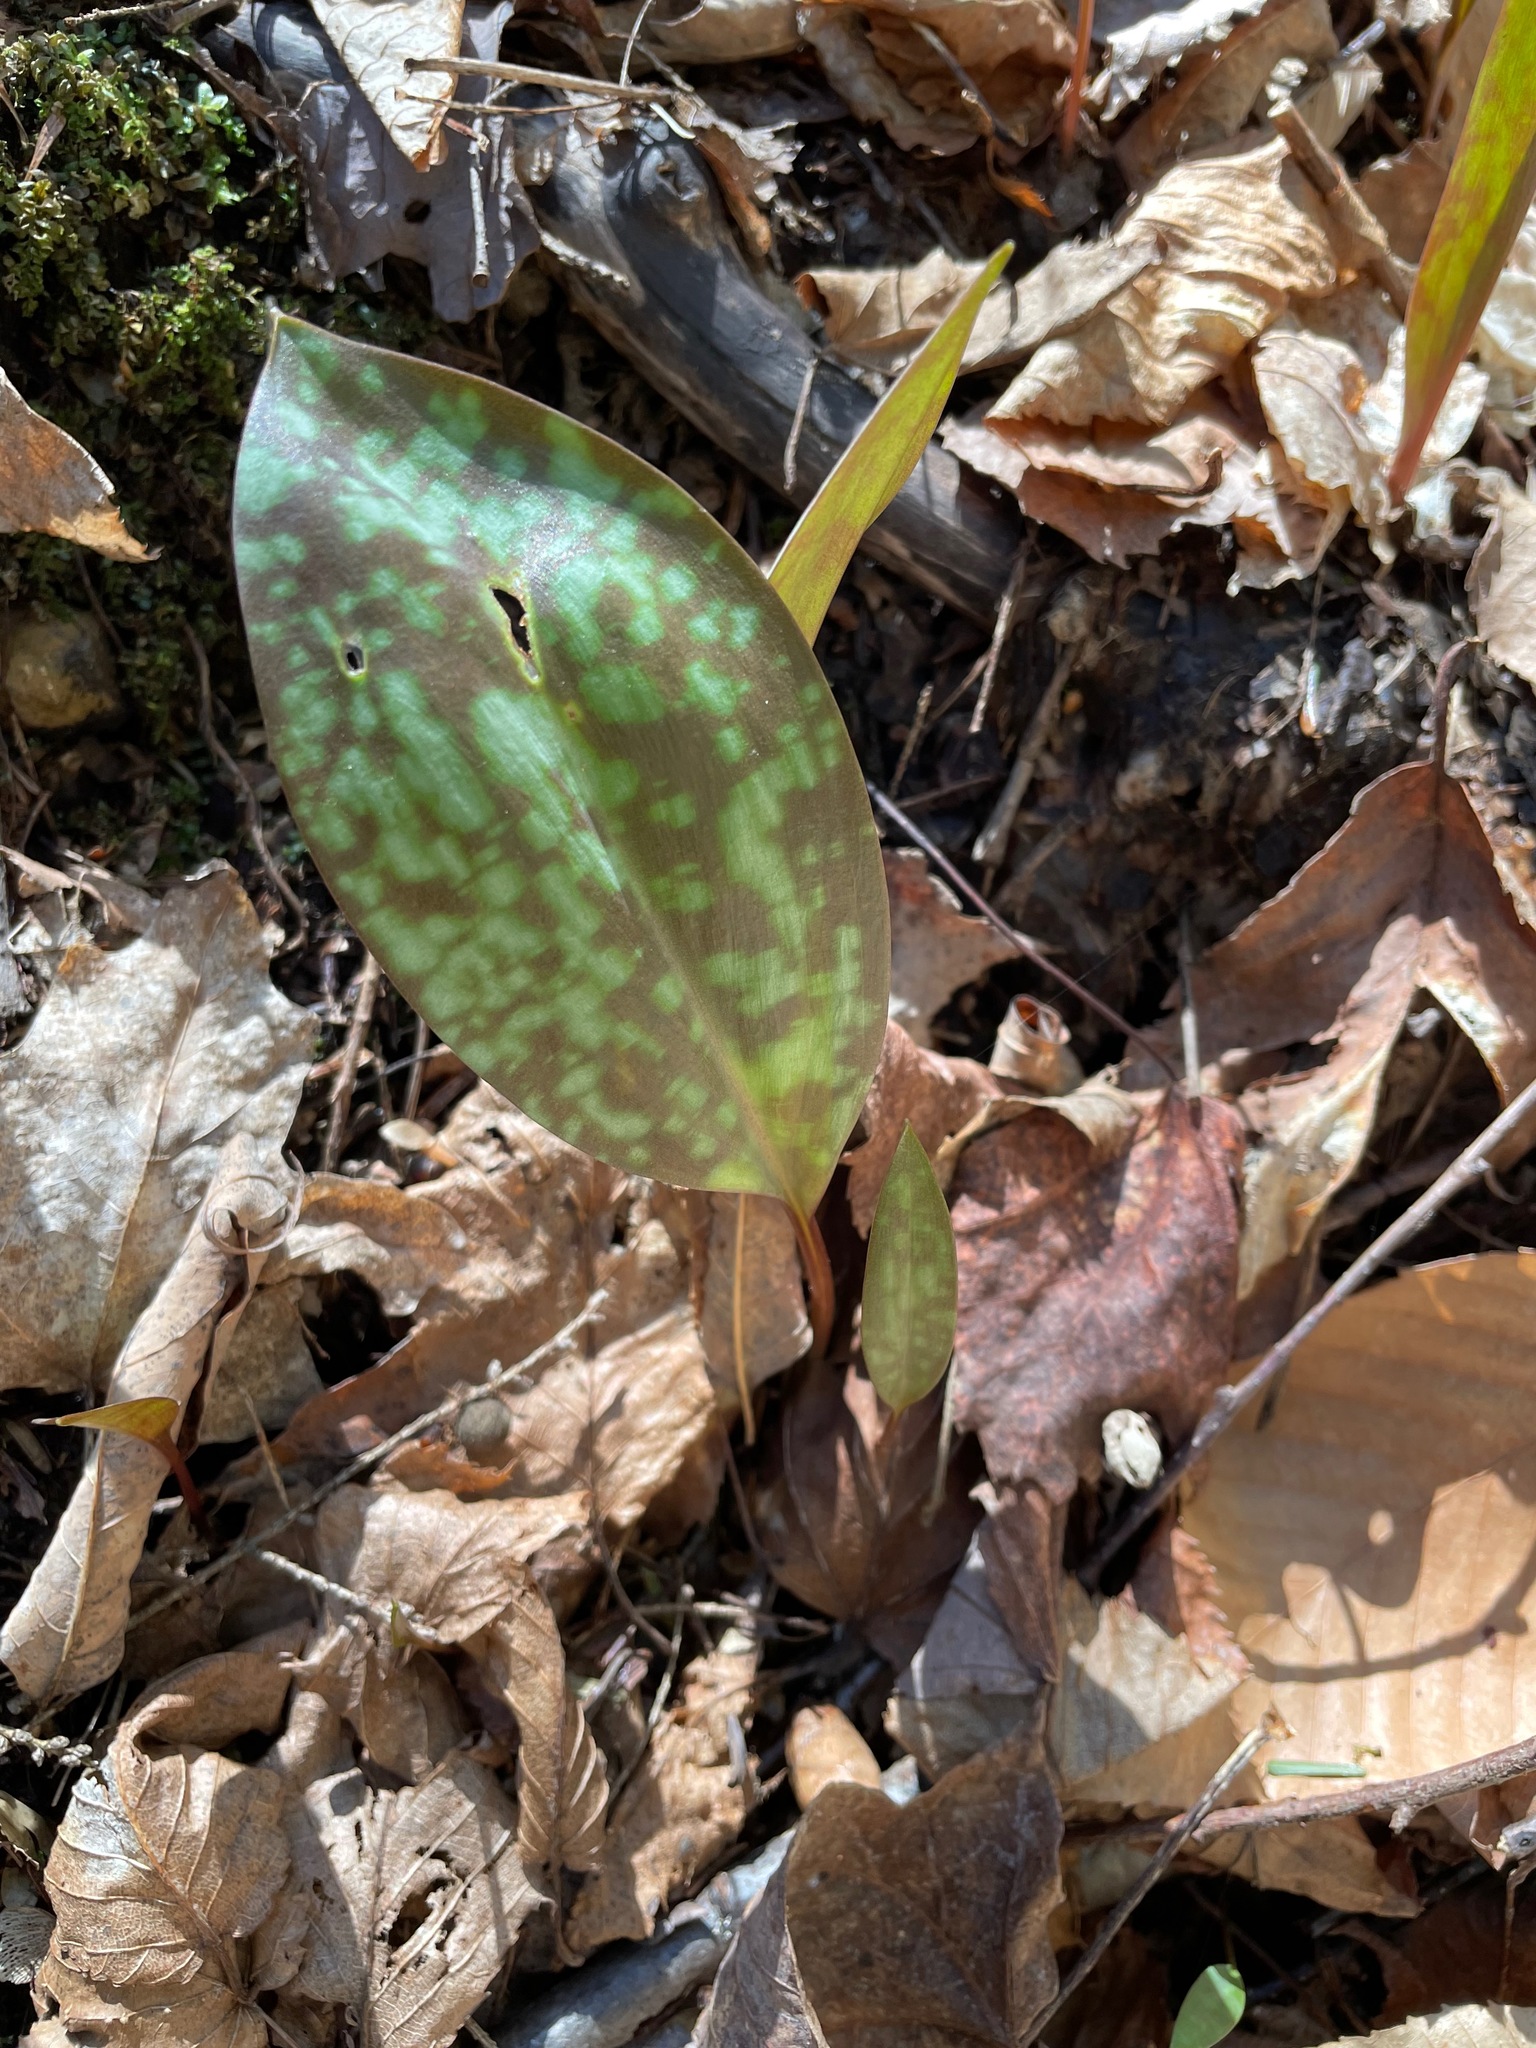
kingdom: Plantae
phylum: Tracheophyta
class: Liliopsida
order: Liliales
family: Liliaceae
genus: Erythronium
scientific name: Erythronium americanum
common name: Yellow adder's-tongue
